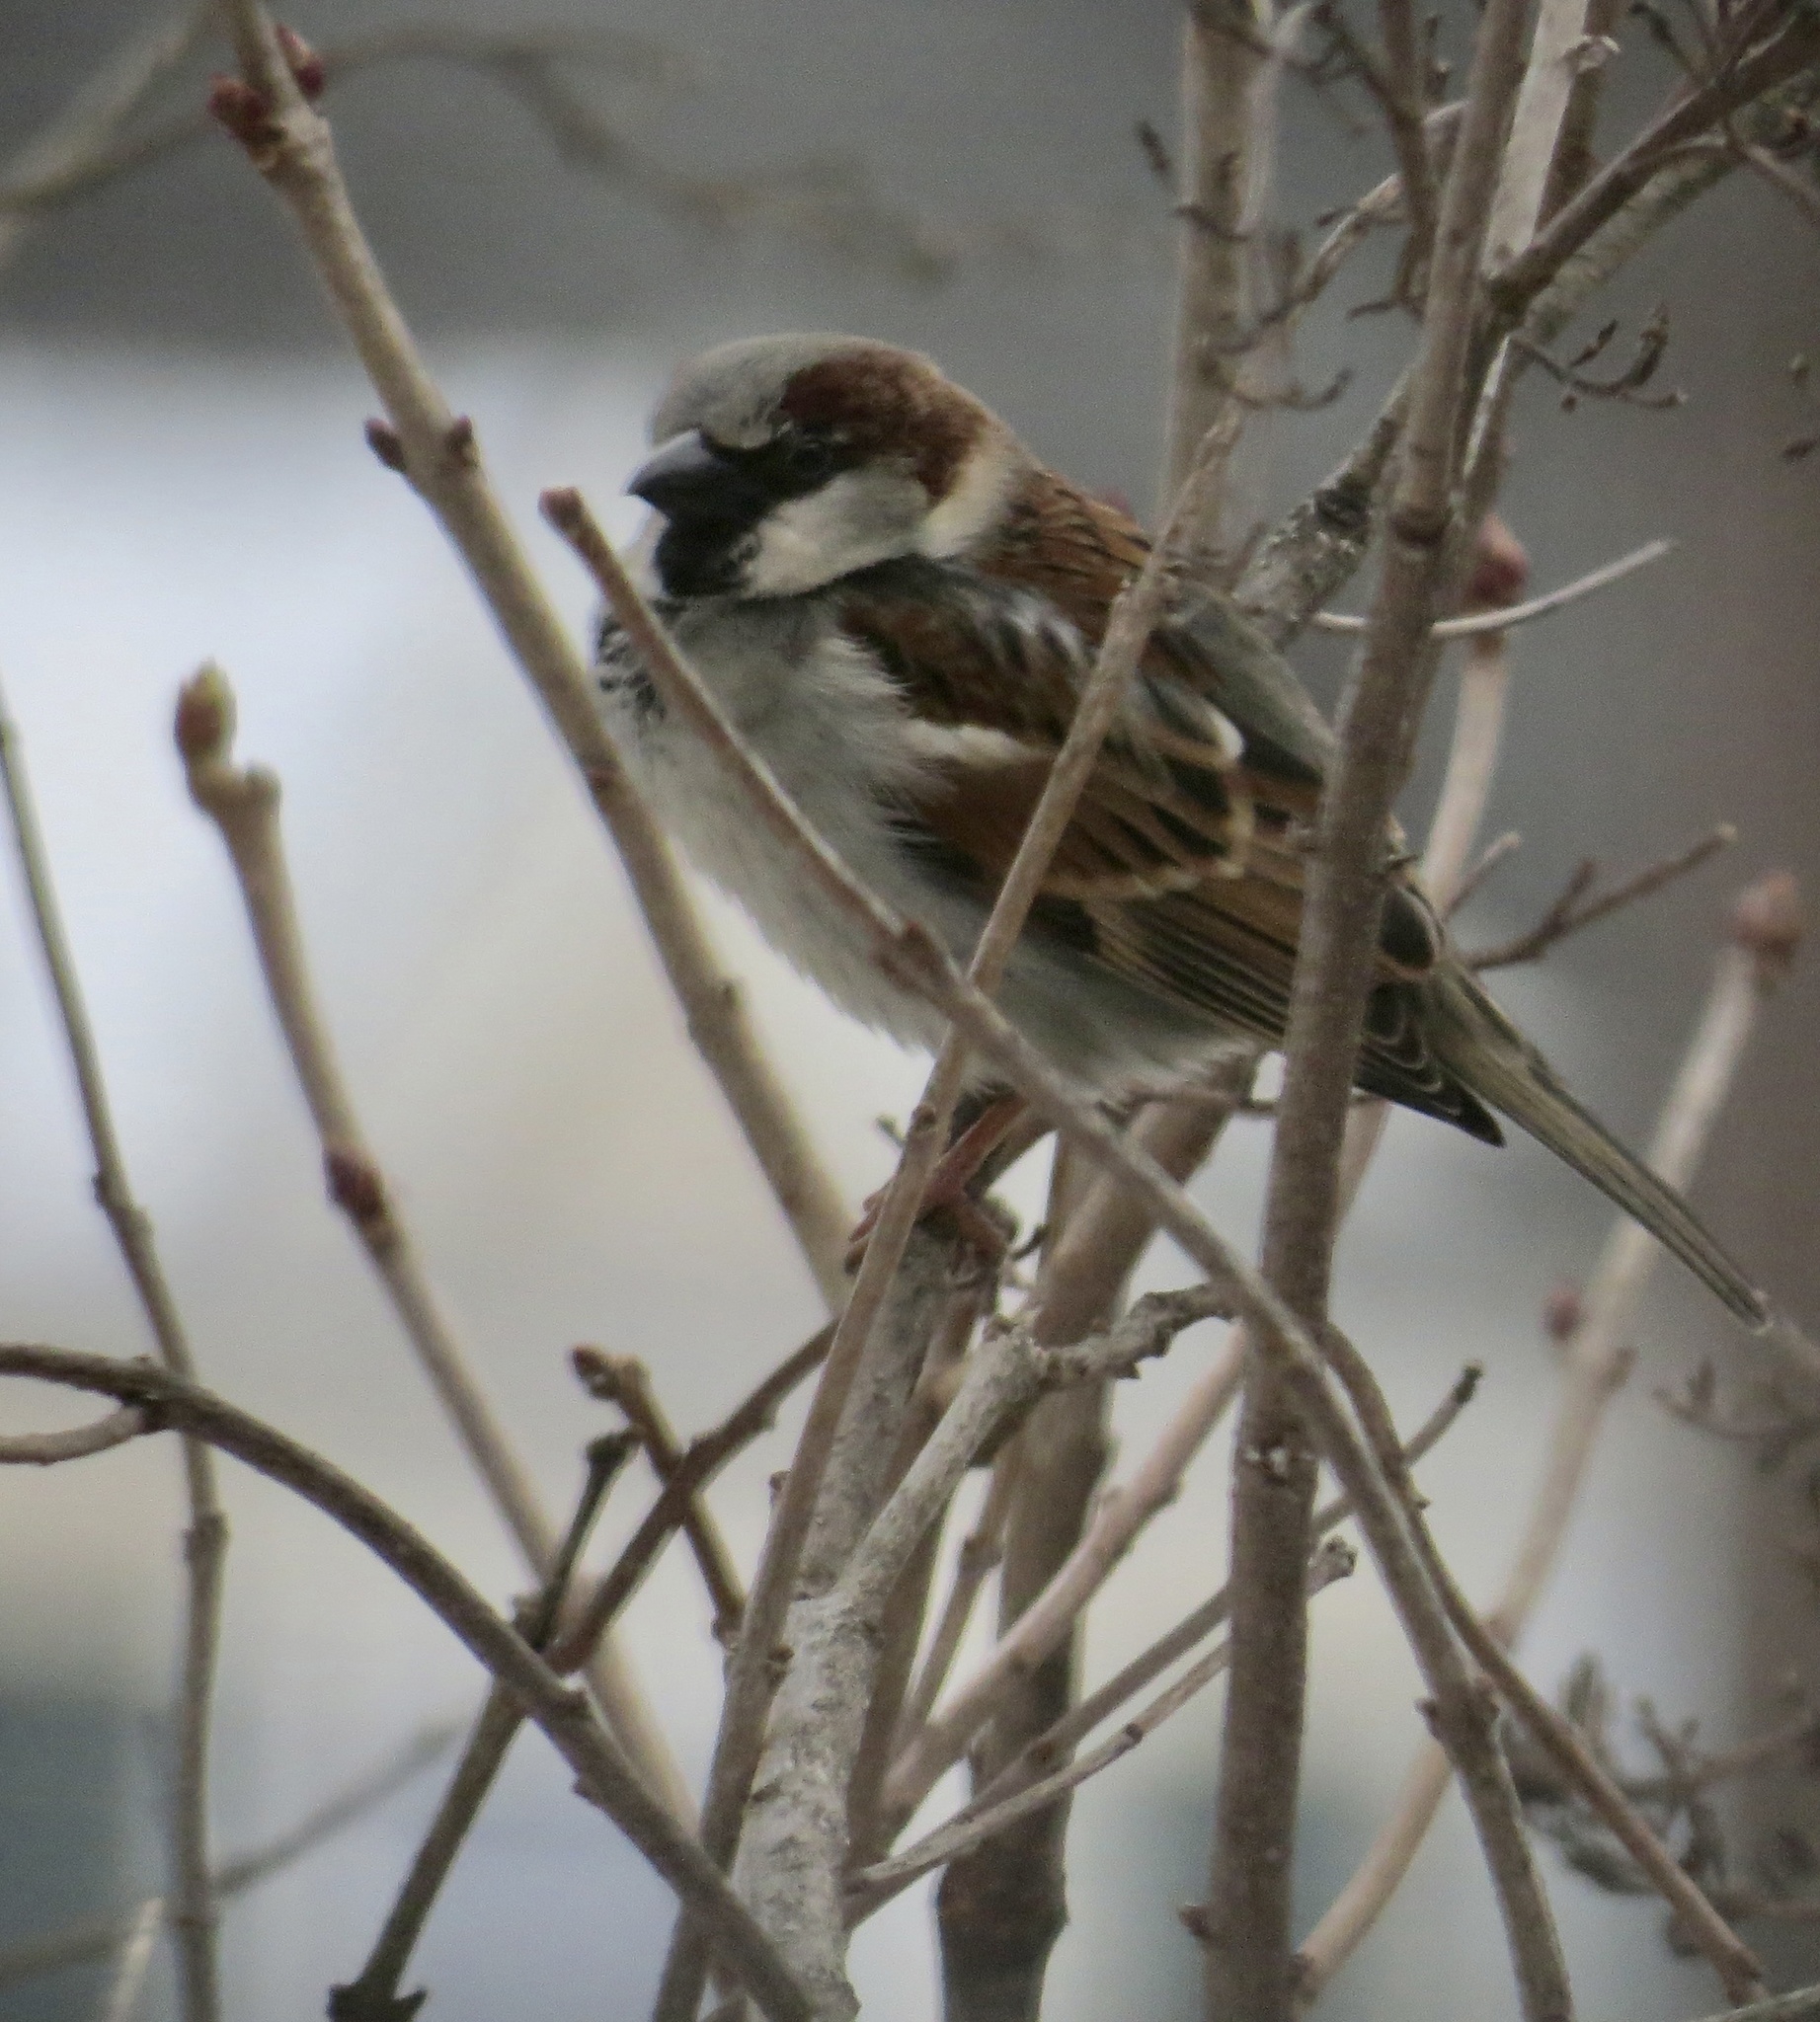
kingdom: Animalia
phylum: Chordata
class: Aves
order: Passeriformes
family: Passeridae
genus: Passer
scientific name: Passer domesticus
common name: House sparrow
